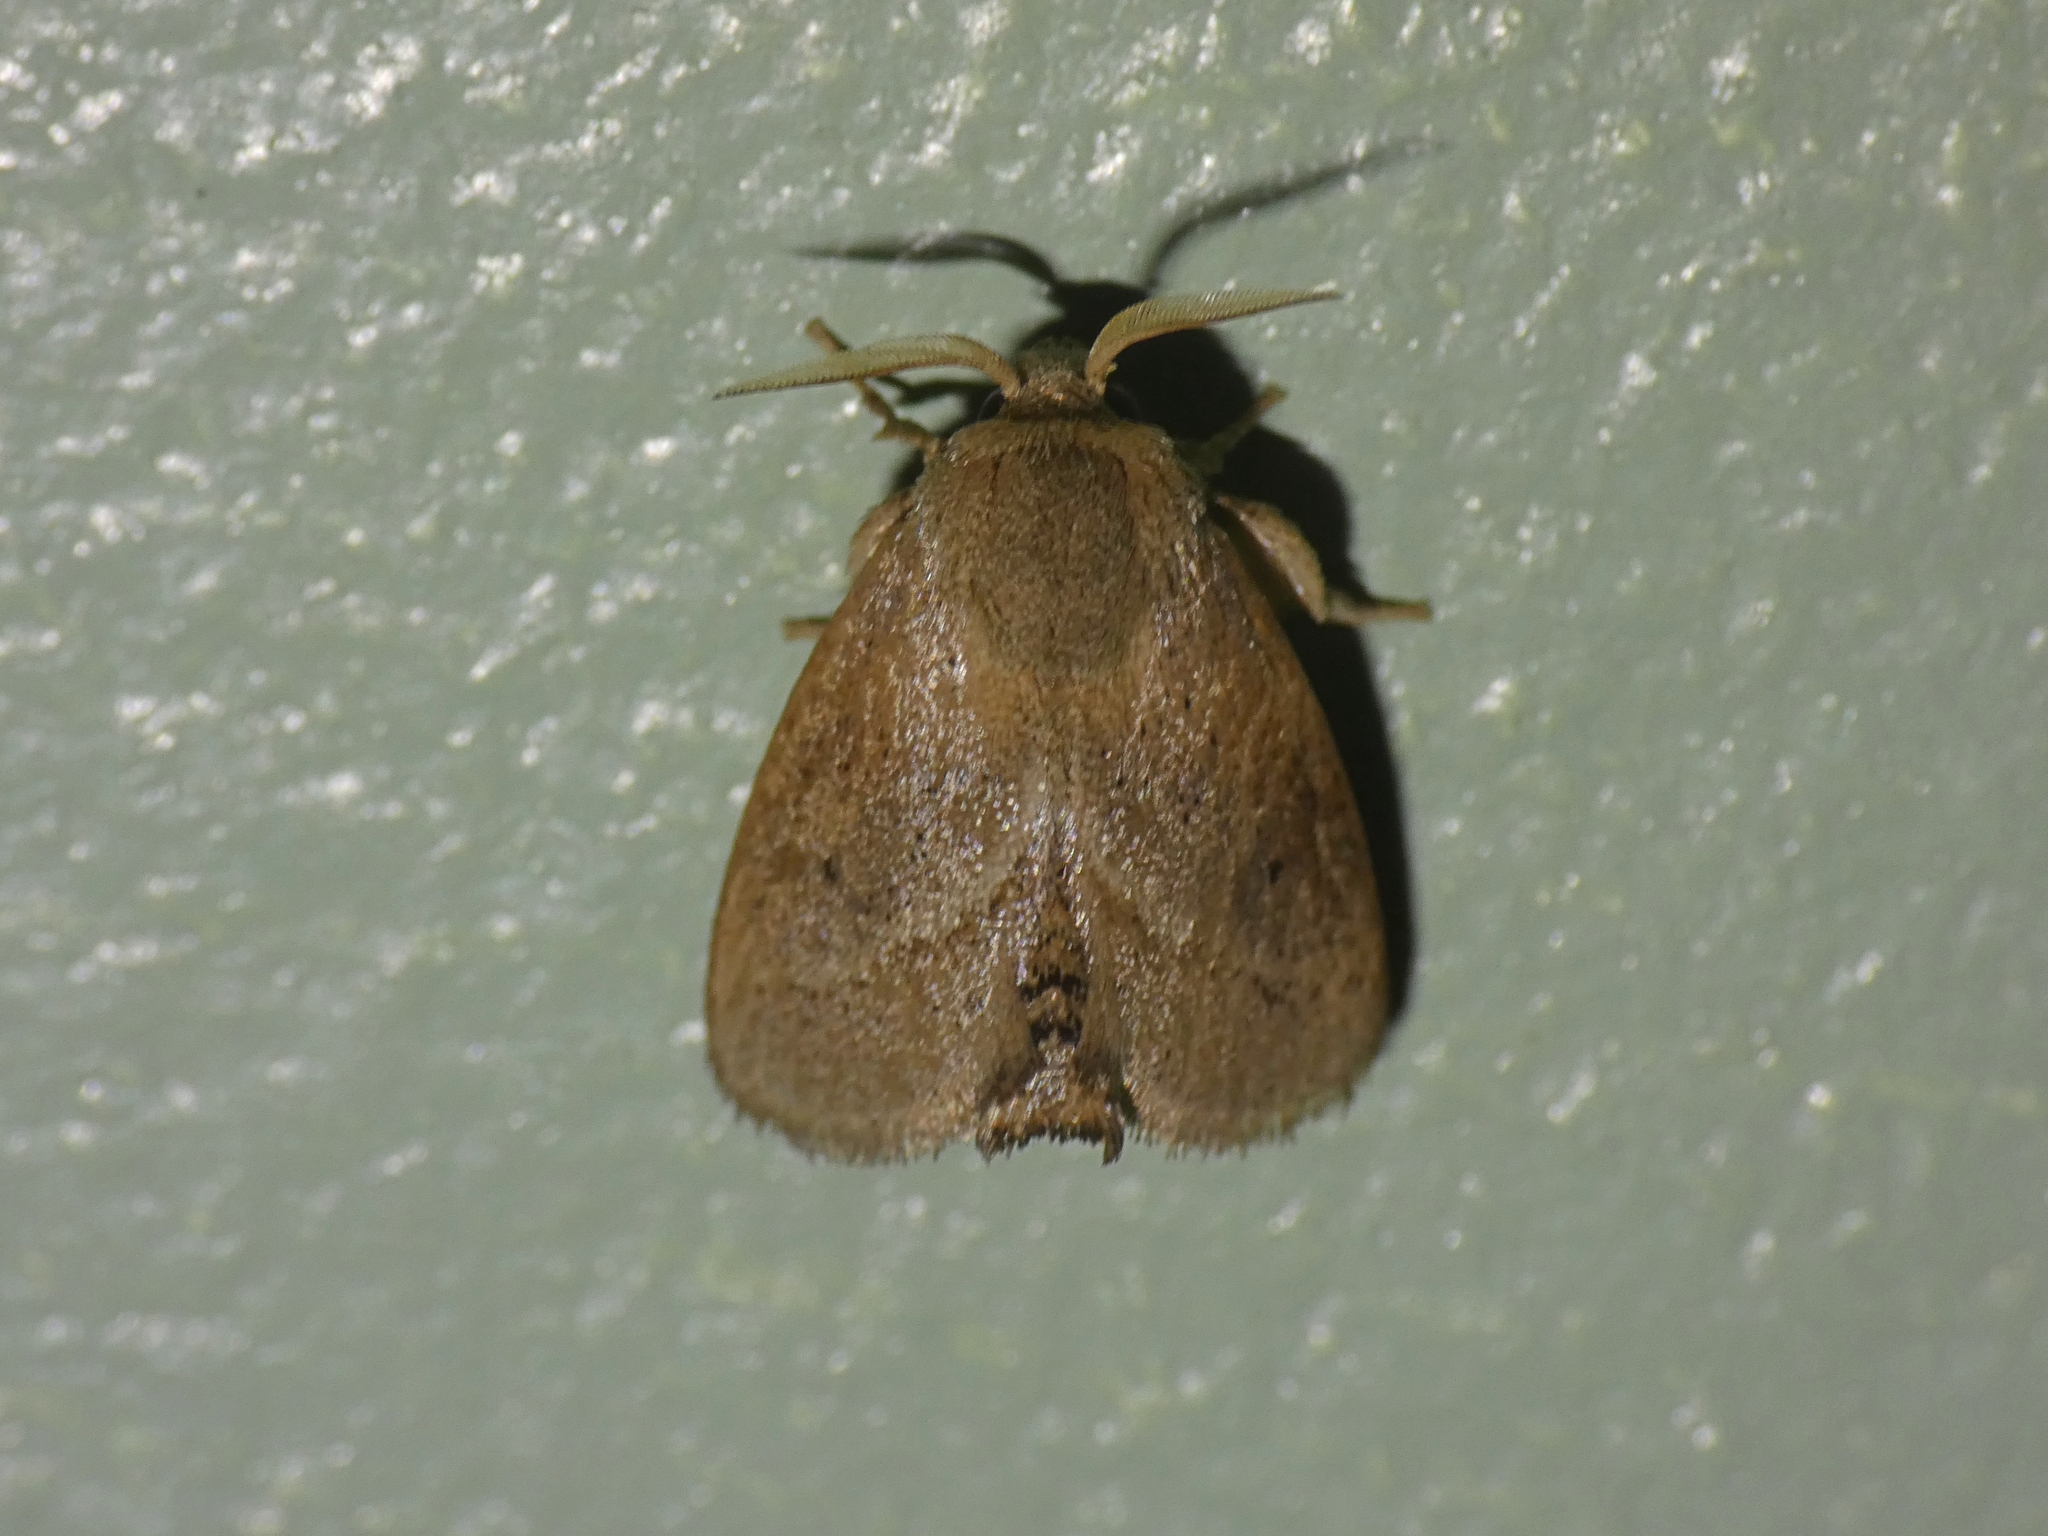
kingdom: Animalia
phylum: Arthropoda
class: Insecta
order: Lepidoptera
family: Limacodidae
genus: Anepopsia
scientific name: Anepopsia eugyra
